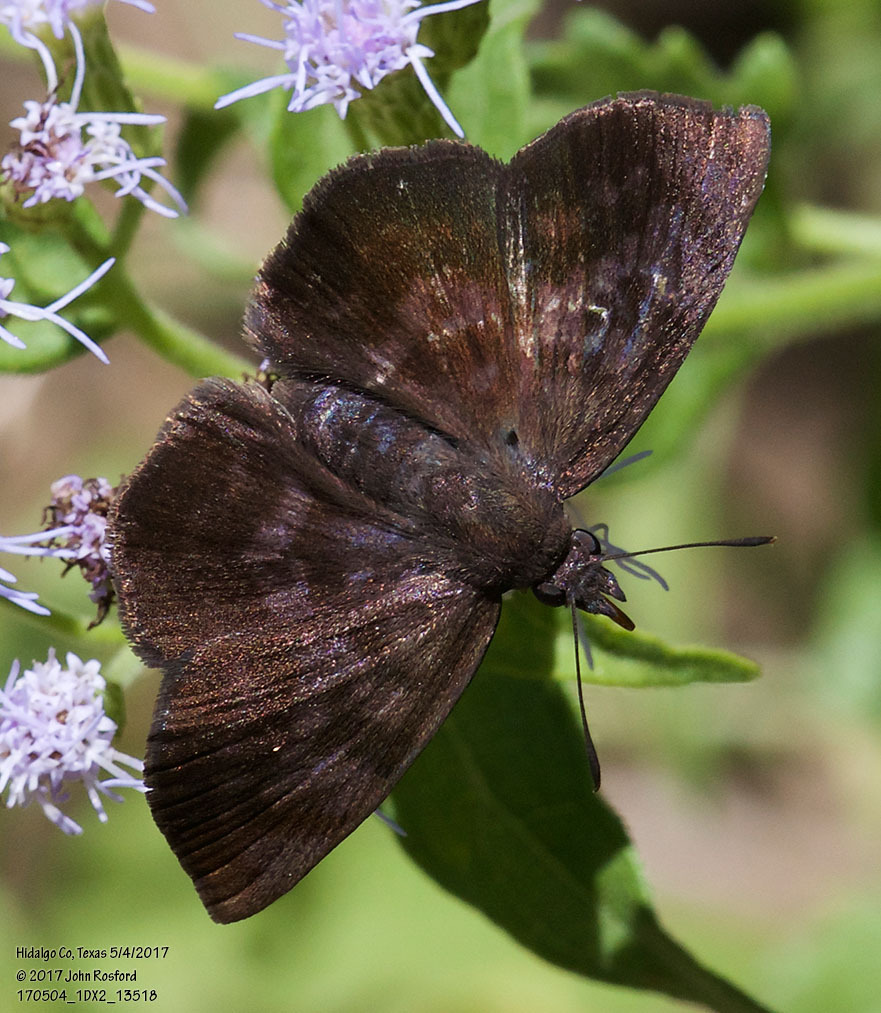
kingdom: Animalia
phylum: Arthropoda
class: Insecta
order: Lepidoptera
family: Hesperiidae
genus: Pellicia
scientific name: Pellicia costimacula
